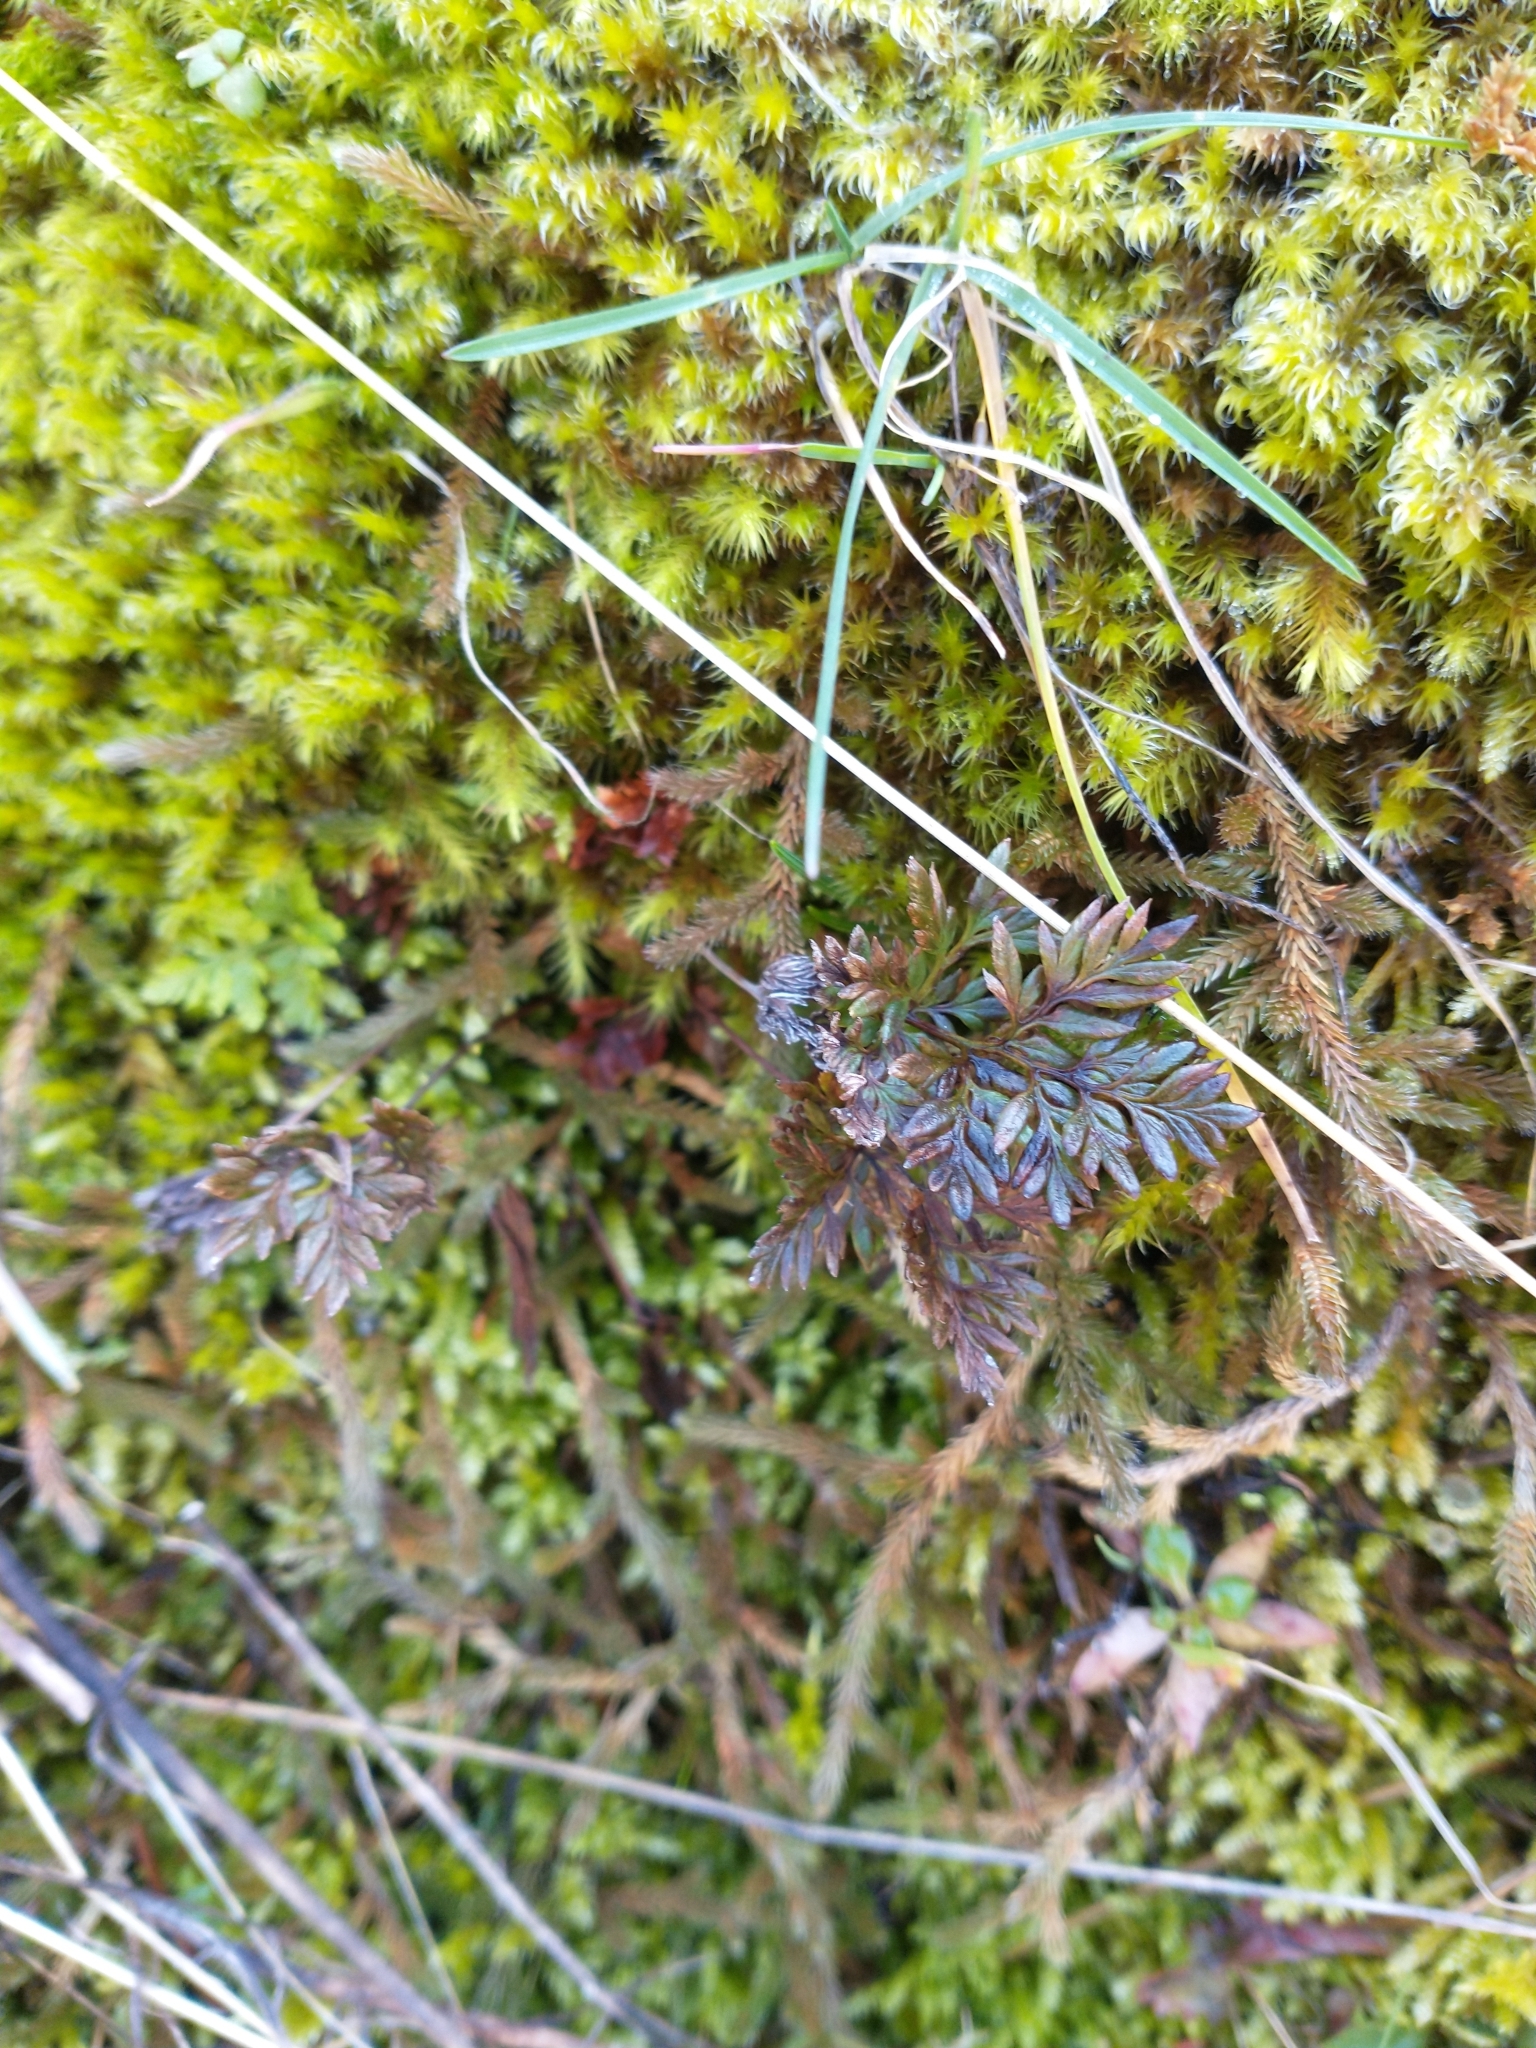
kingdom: Plantae
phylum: Tracheophyta
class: Polypodiopsida
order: Polypodiales
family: Pteridaceae
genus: Aspidotis
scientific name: Aspidotis densa
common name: Indian's dream
